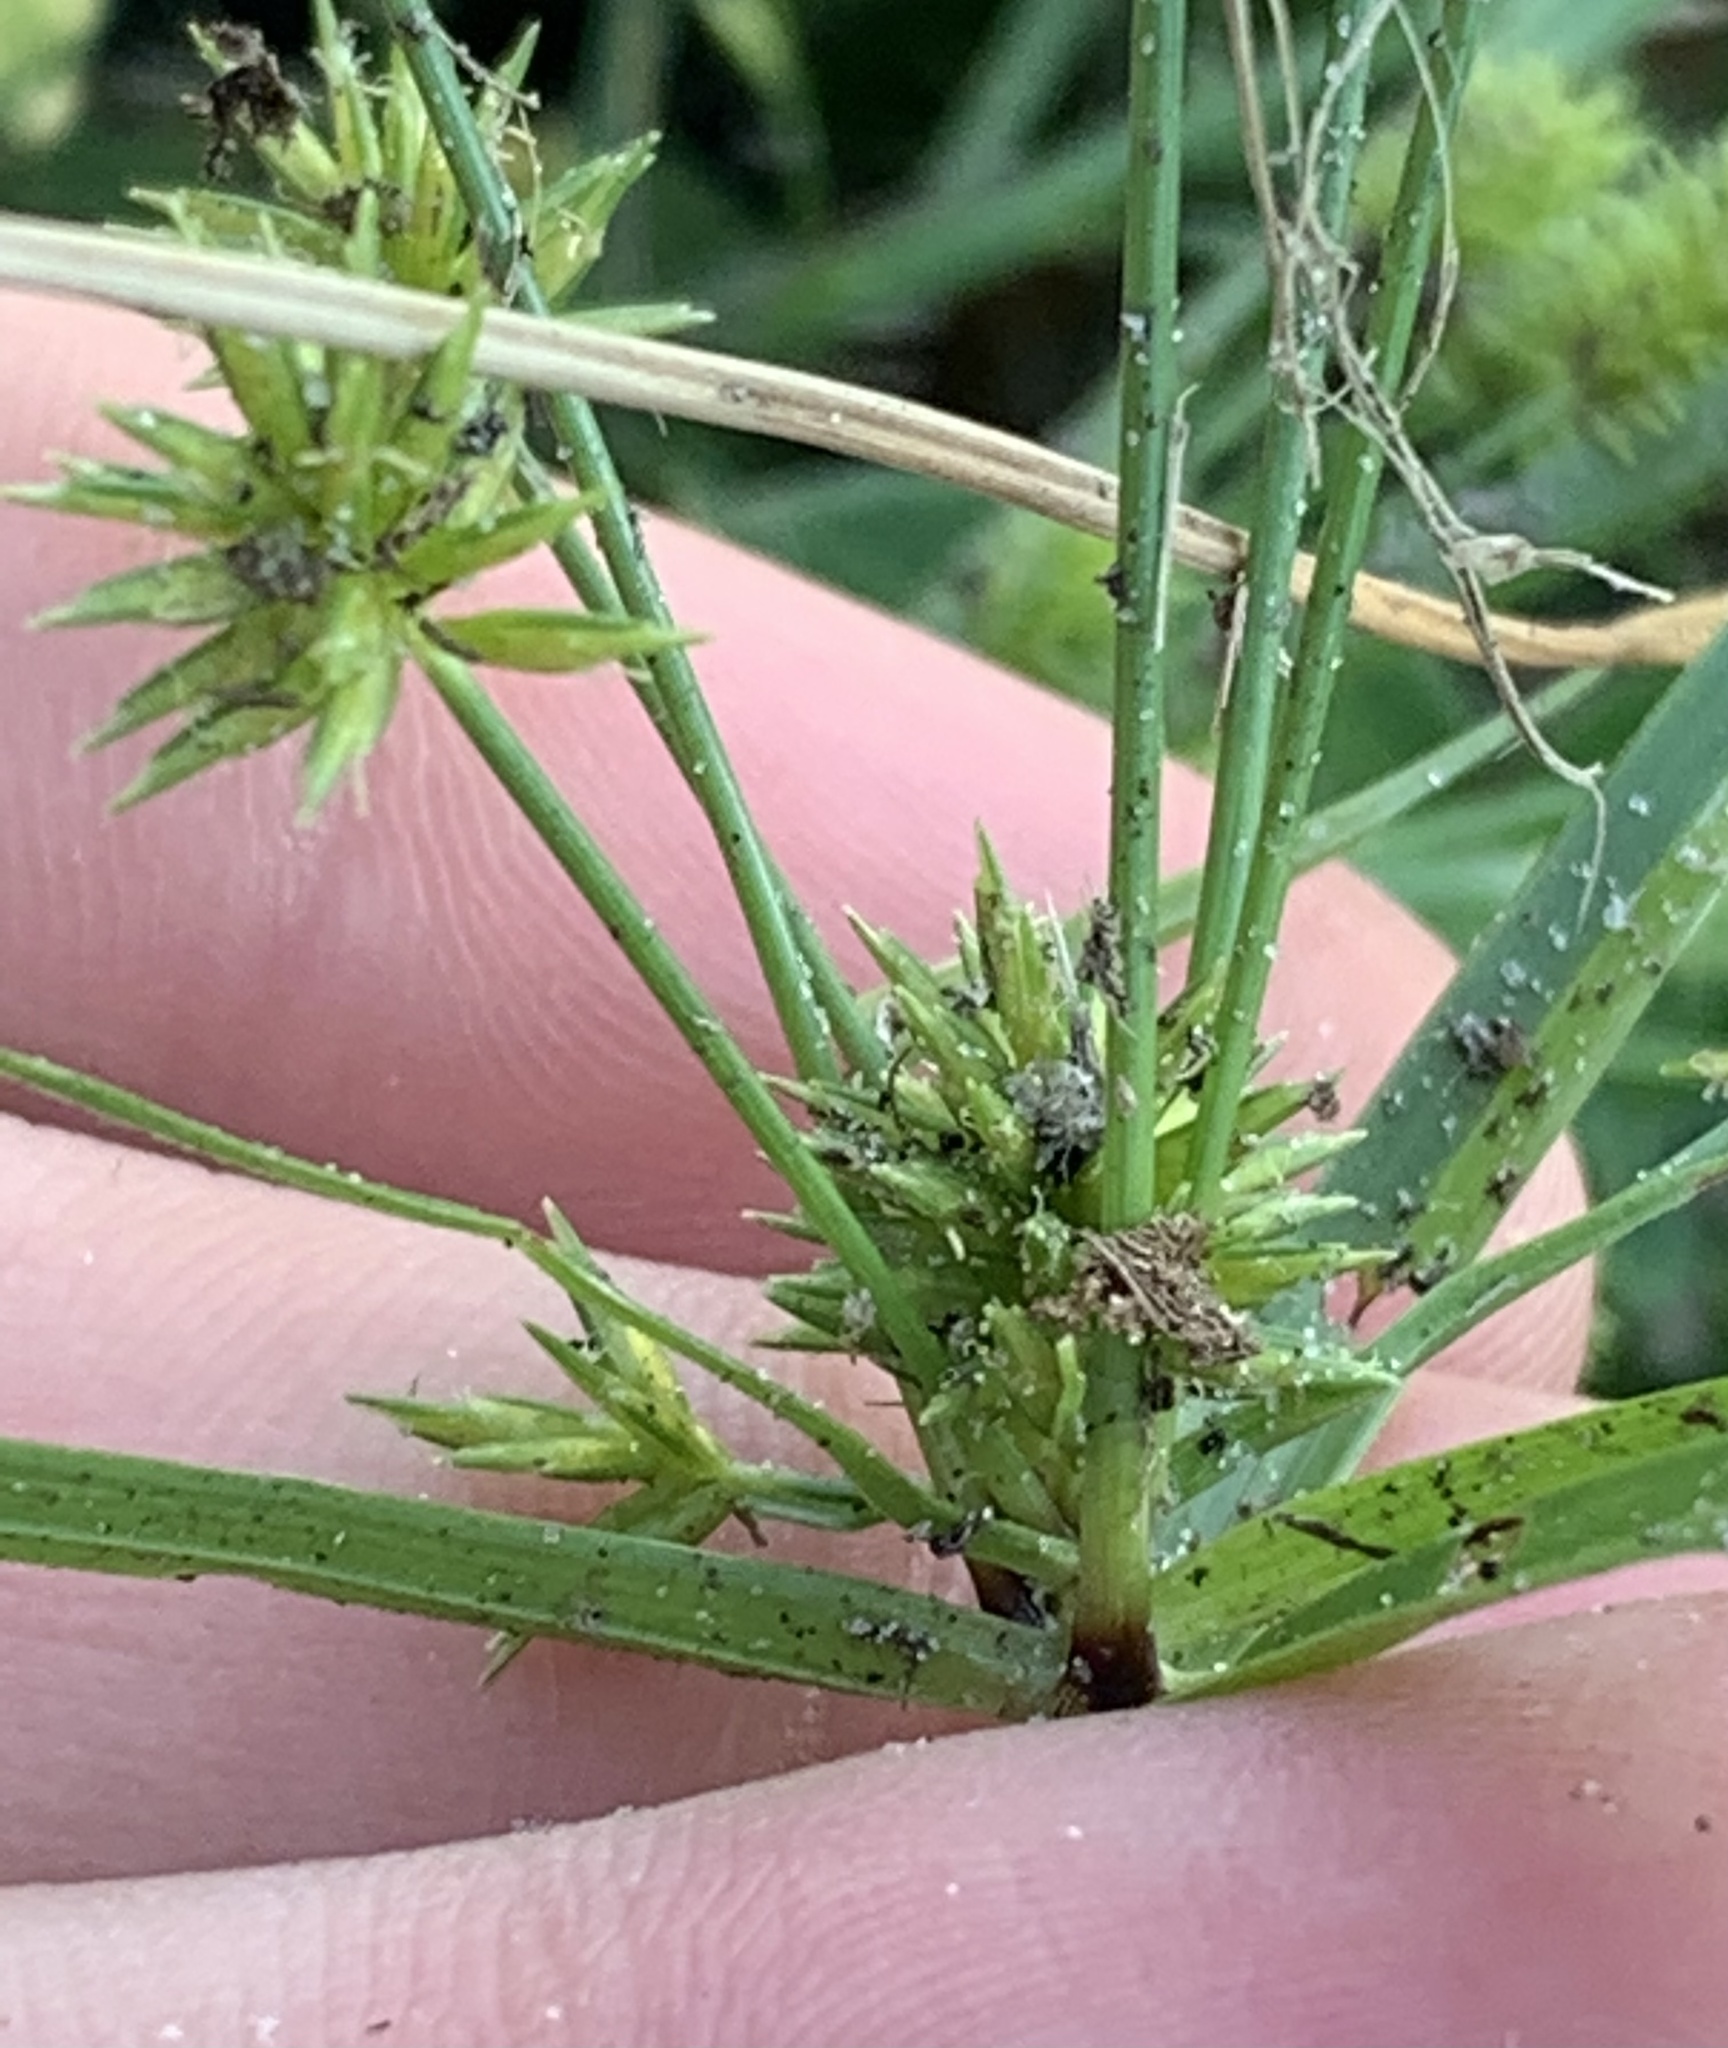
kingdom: Plantae
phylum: Tracheophyta
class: Liliopsida
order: Poales
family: Cyperaceae
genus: Cyperus
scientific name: Cyperus croceus
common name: Baldwin's flatsedge
